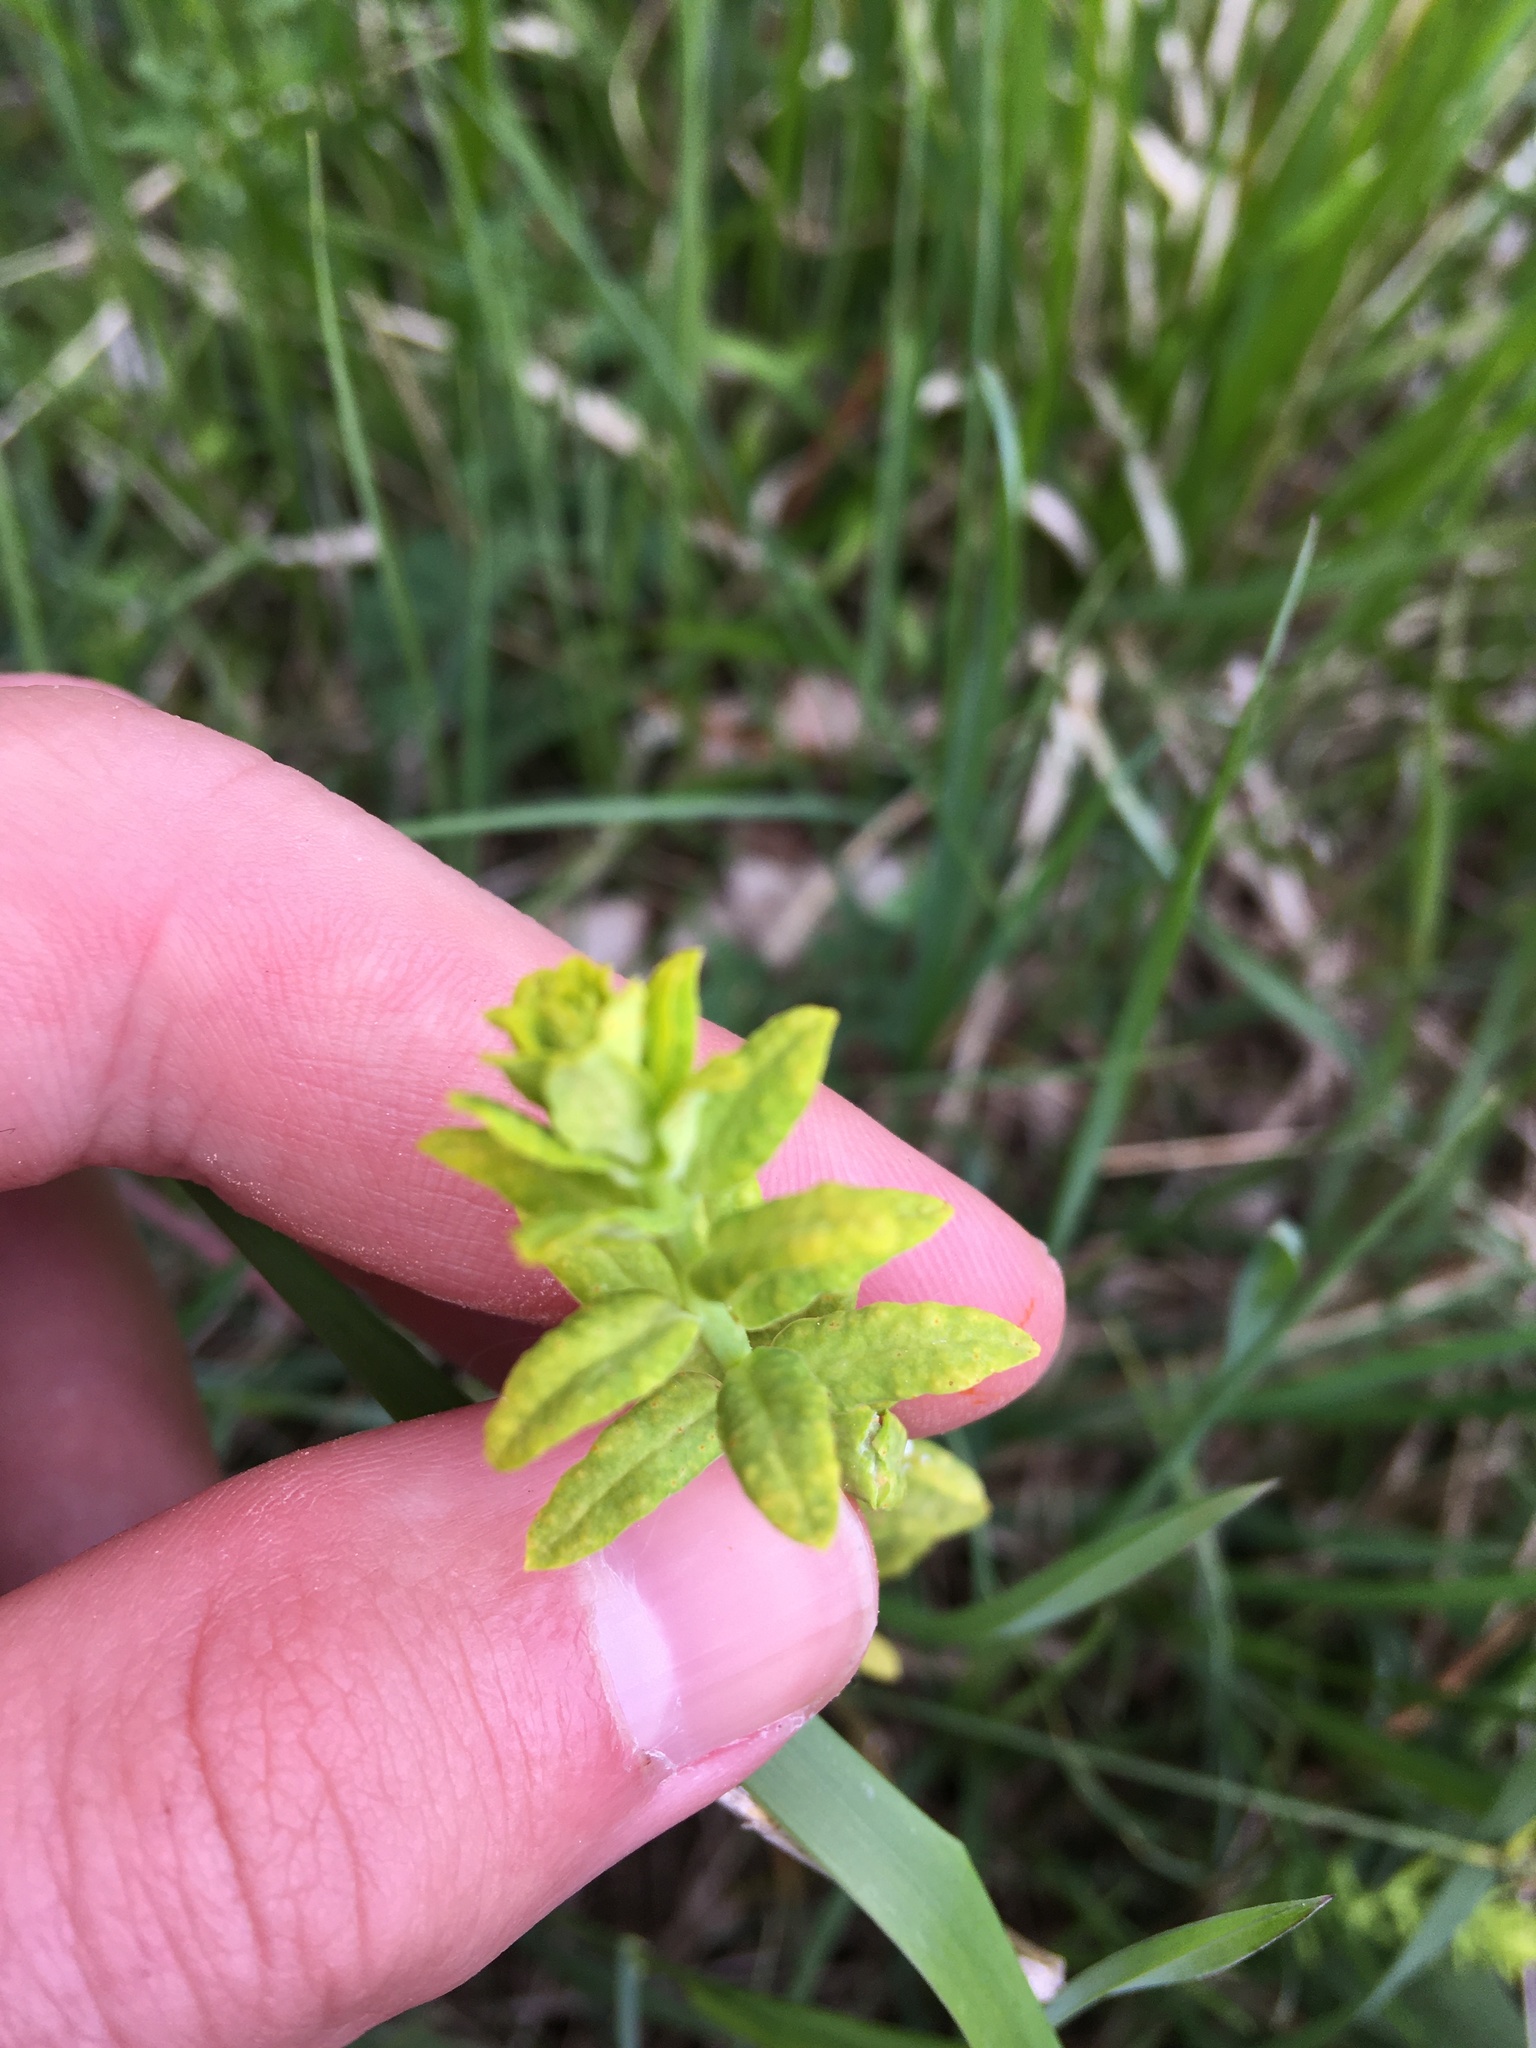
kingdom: Plantae
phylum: Tracheophyta
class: Magnoliopsida
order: Malpighiales
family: Euphorbiaceae
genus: Euphorbia
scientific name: Euphorbia cyparissias
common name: Cypress spurge
